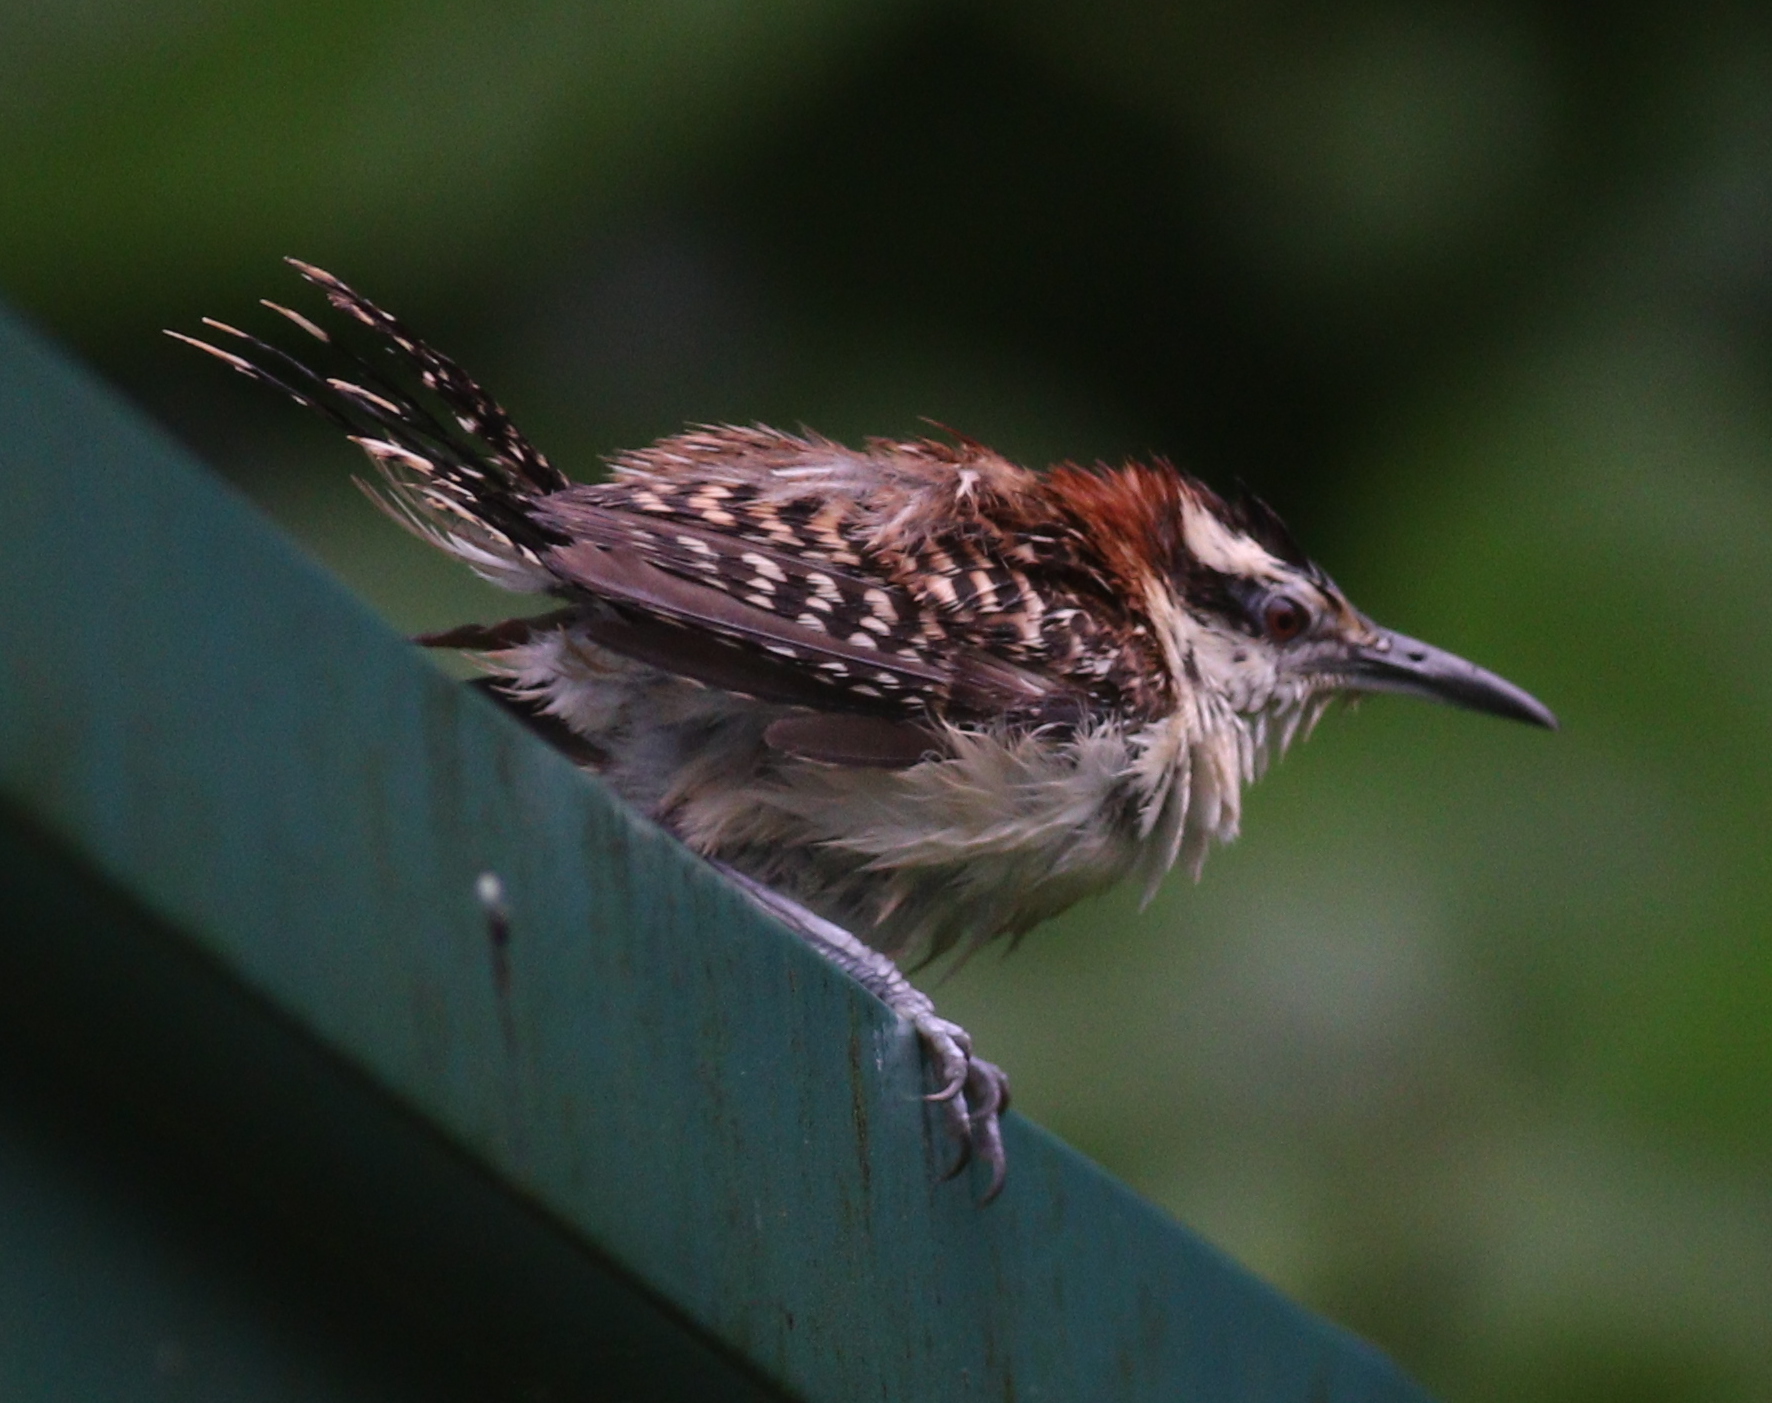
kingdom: Animalia
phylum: Chordata
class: Aves
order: Passeriformes
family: Troglodytidae
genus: Campylorhynchus
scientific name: Campylorhynchus rufinucha
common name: Rufous-naped wren
